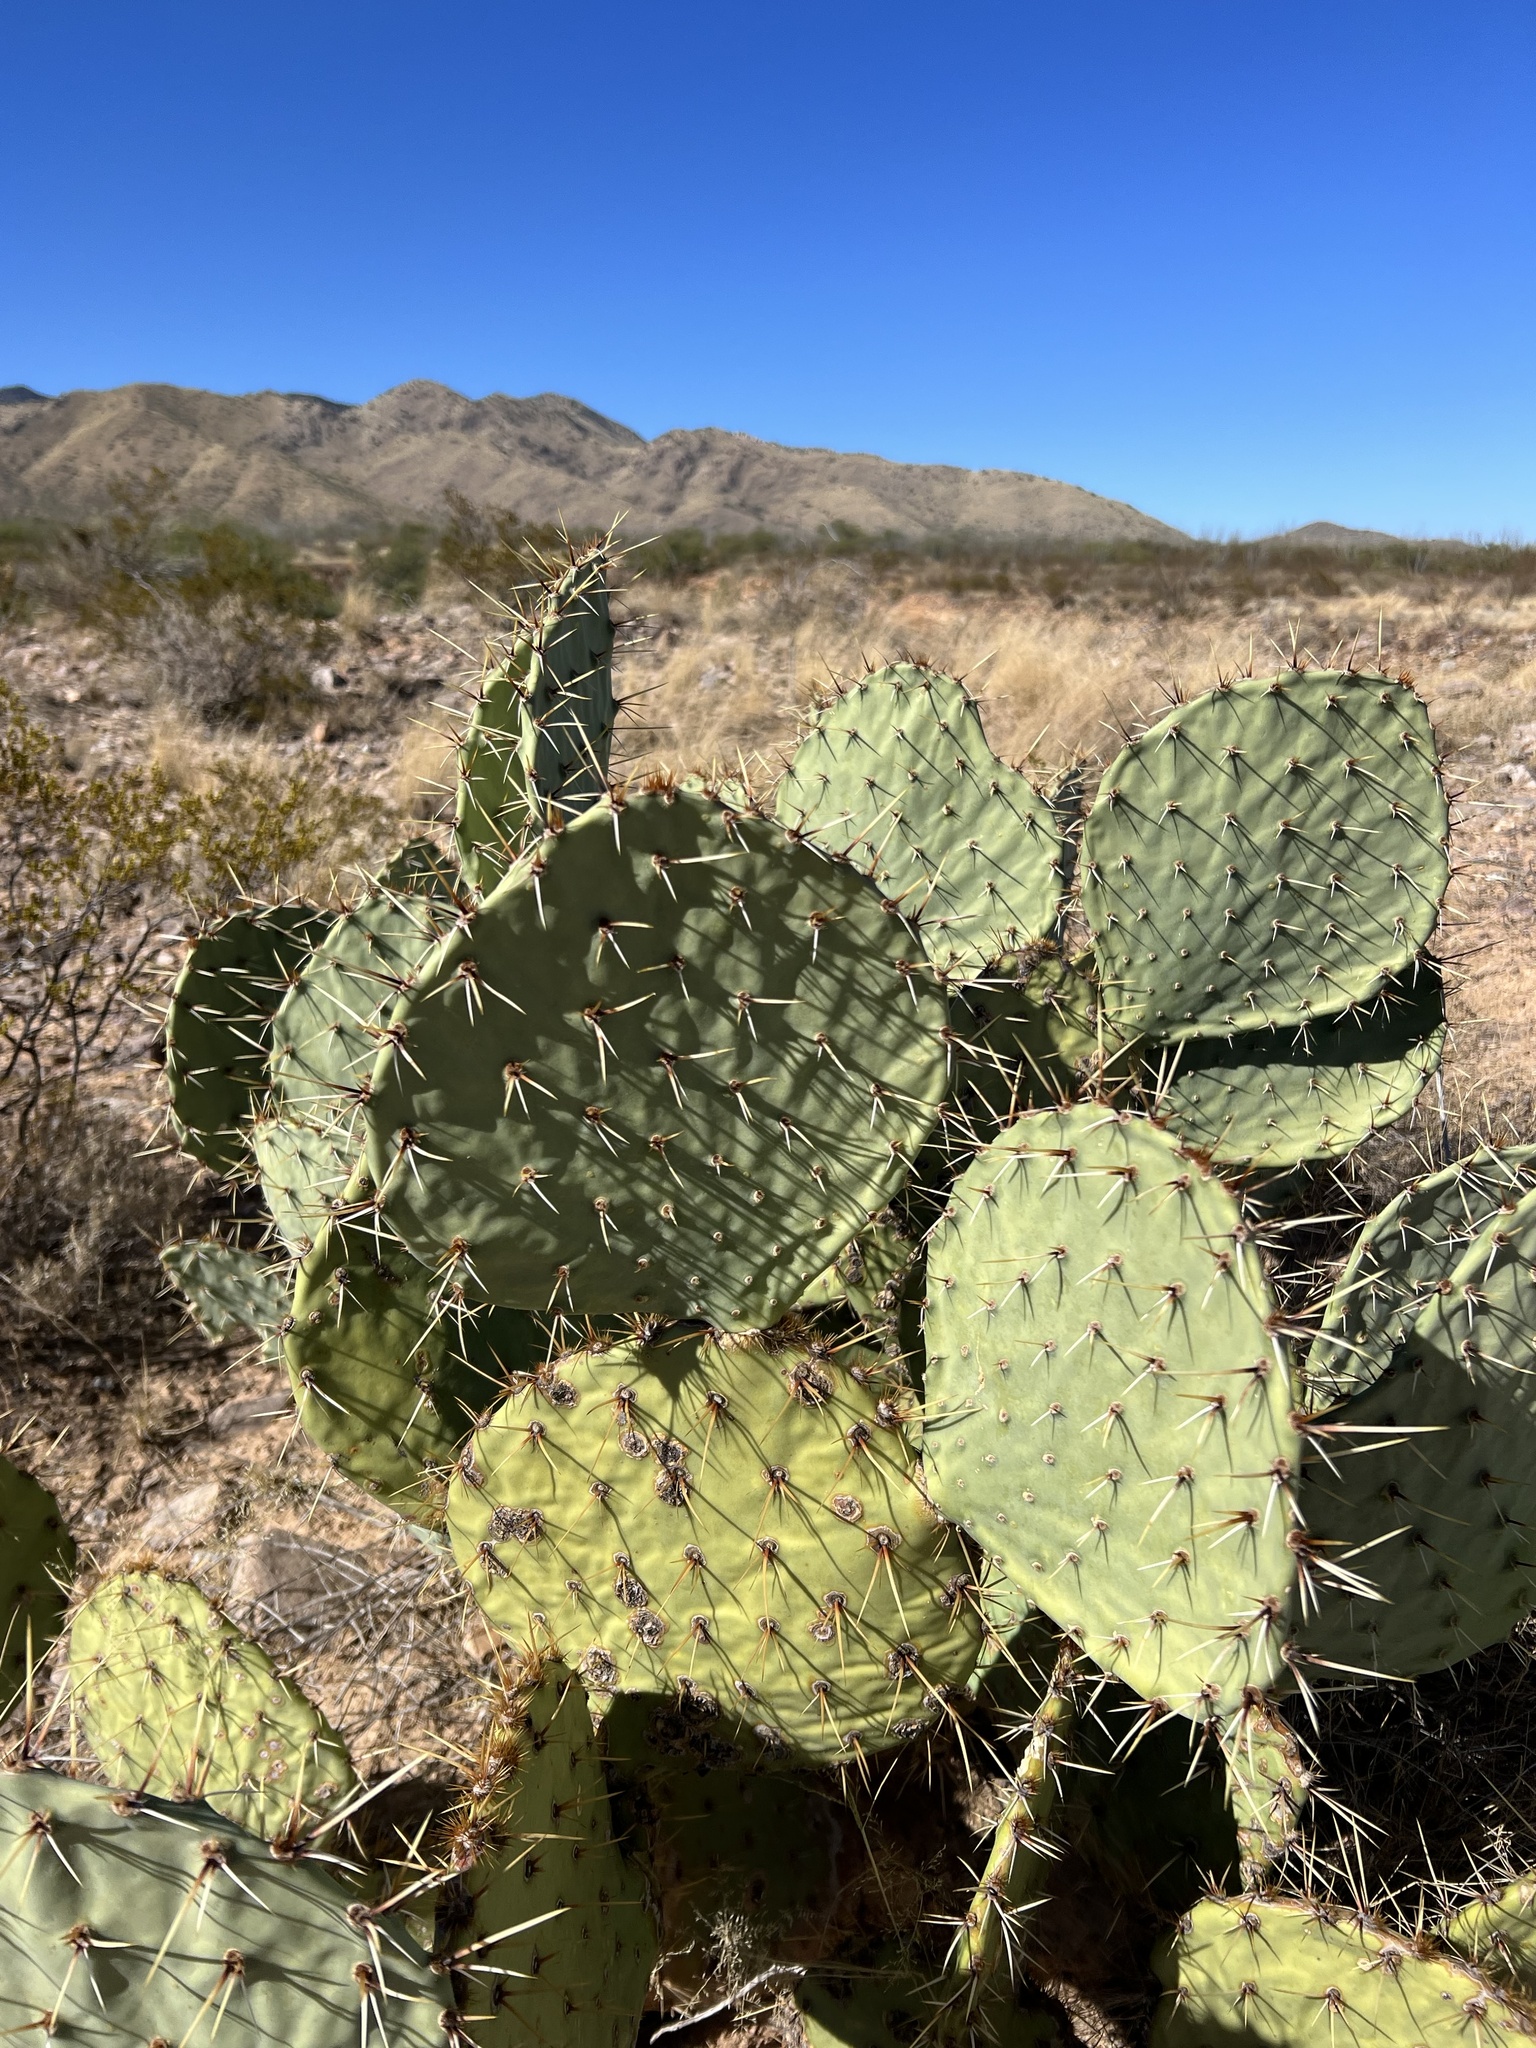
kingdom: Plantae
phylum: Tracheophyta
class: Magnoliopsida
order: Caryophyllales
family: Cactaceae
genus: Opuntia
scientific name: Opuntia engelmannii
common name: Cactus-apple
